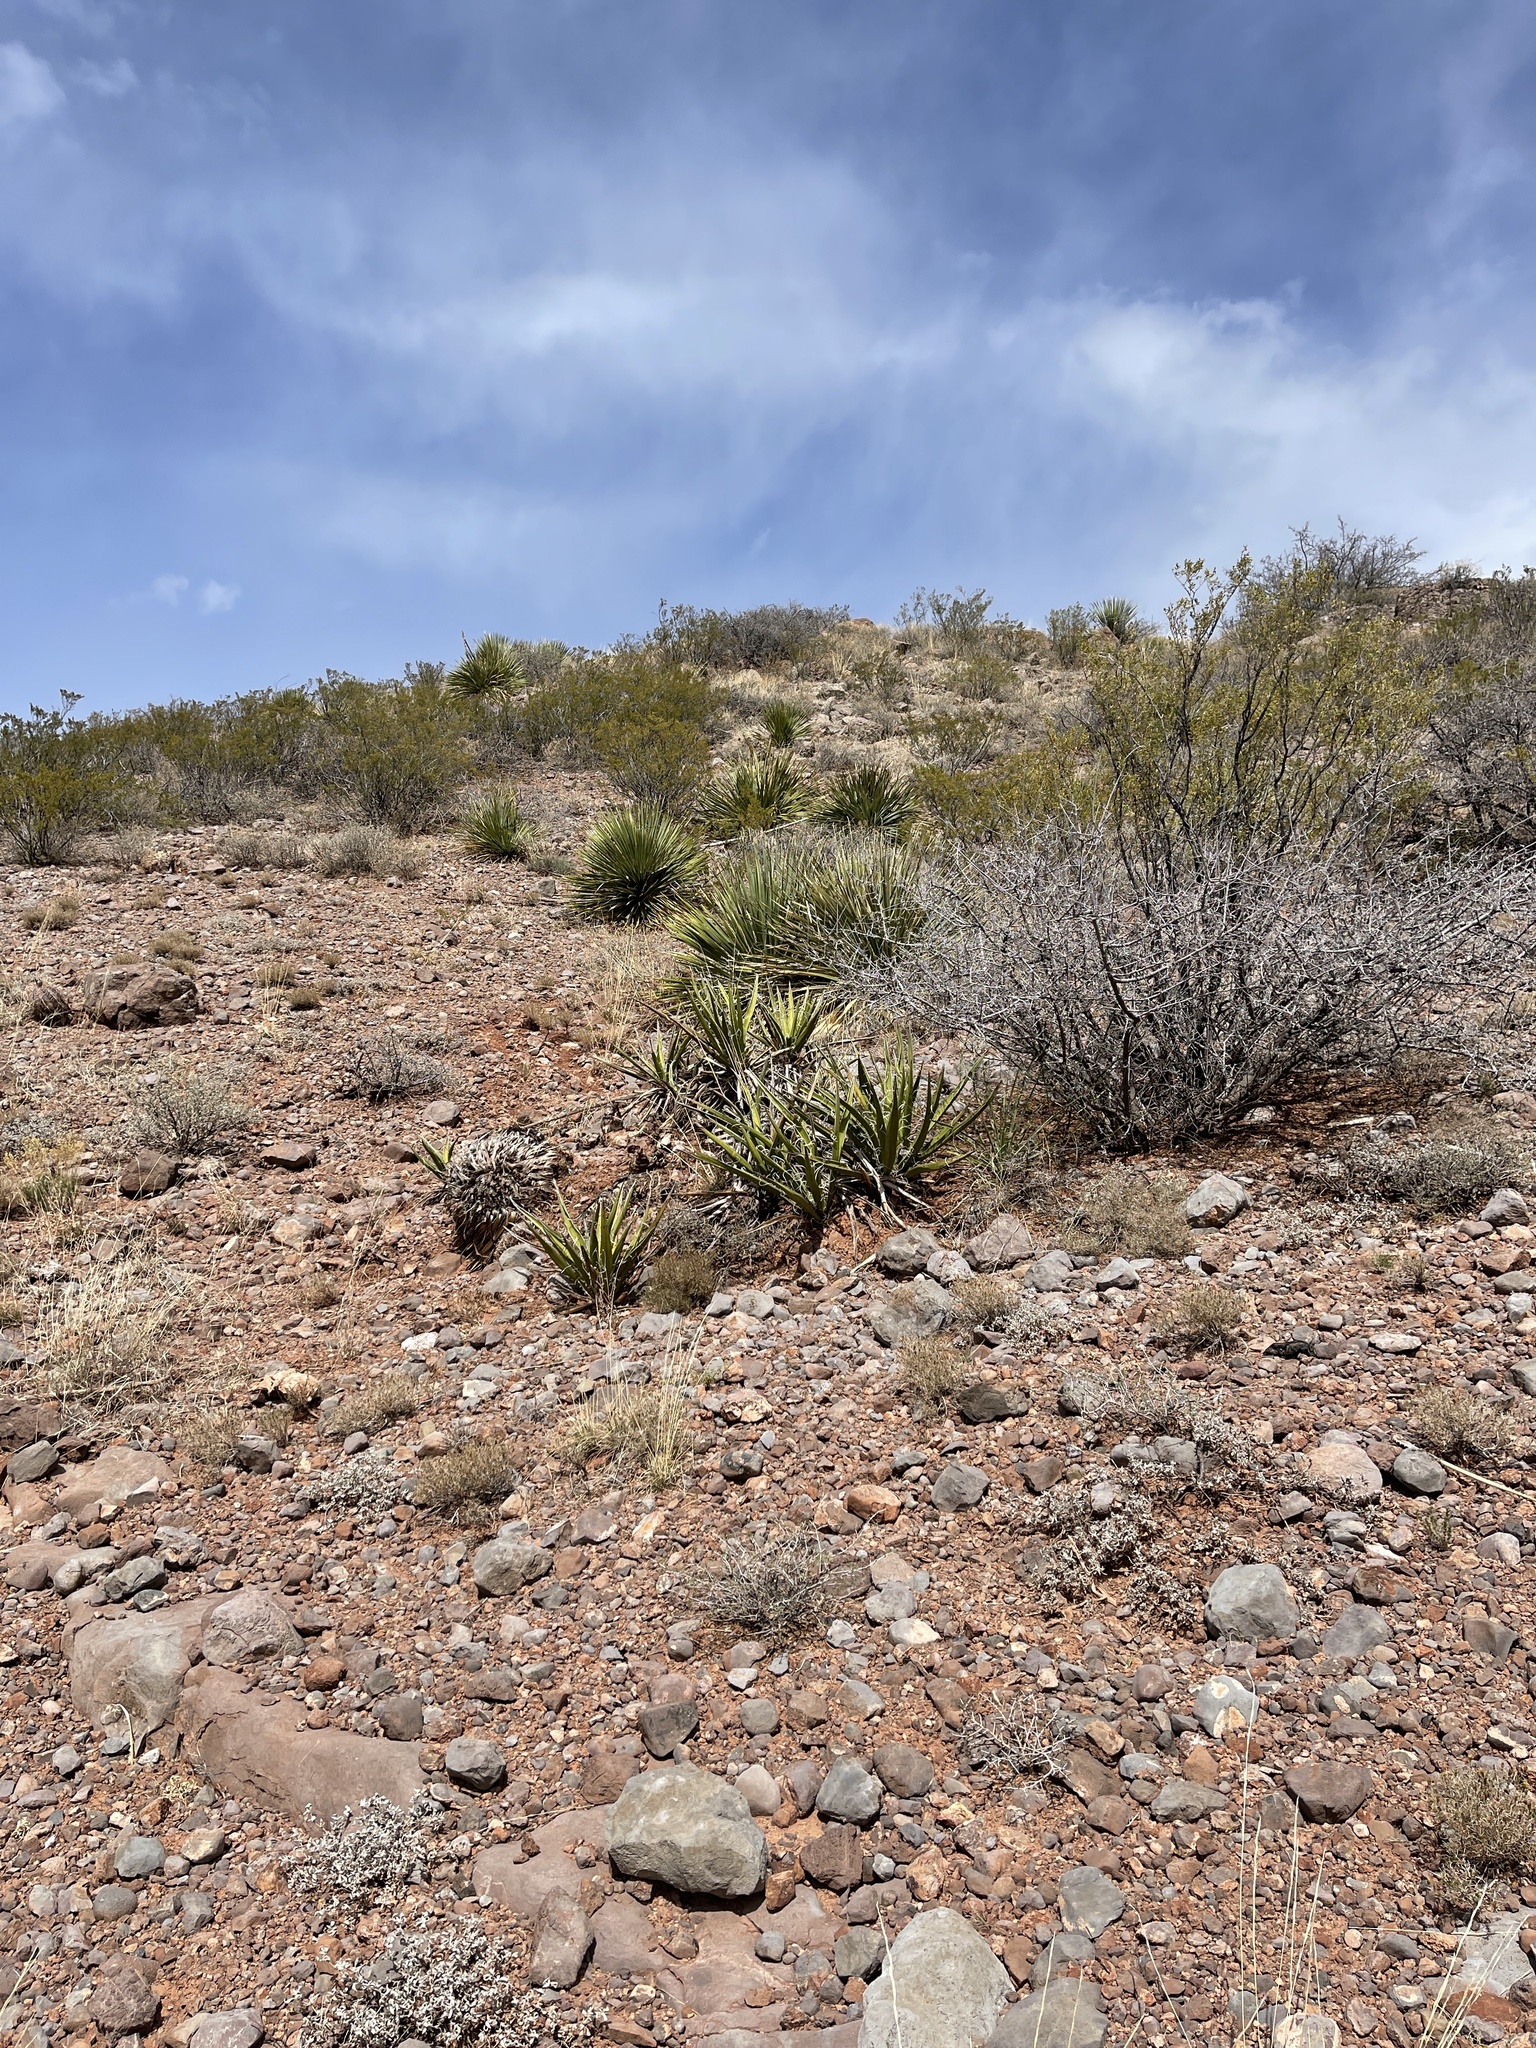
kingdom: Plantae
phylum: Tracheophyta
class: Liliopsida
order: Asparagales
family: Asparagaceae
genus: Yucca
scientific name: Yucca baccata
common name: Banana yucca
